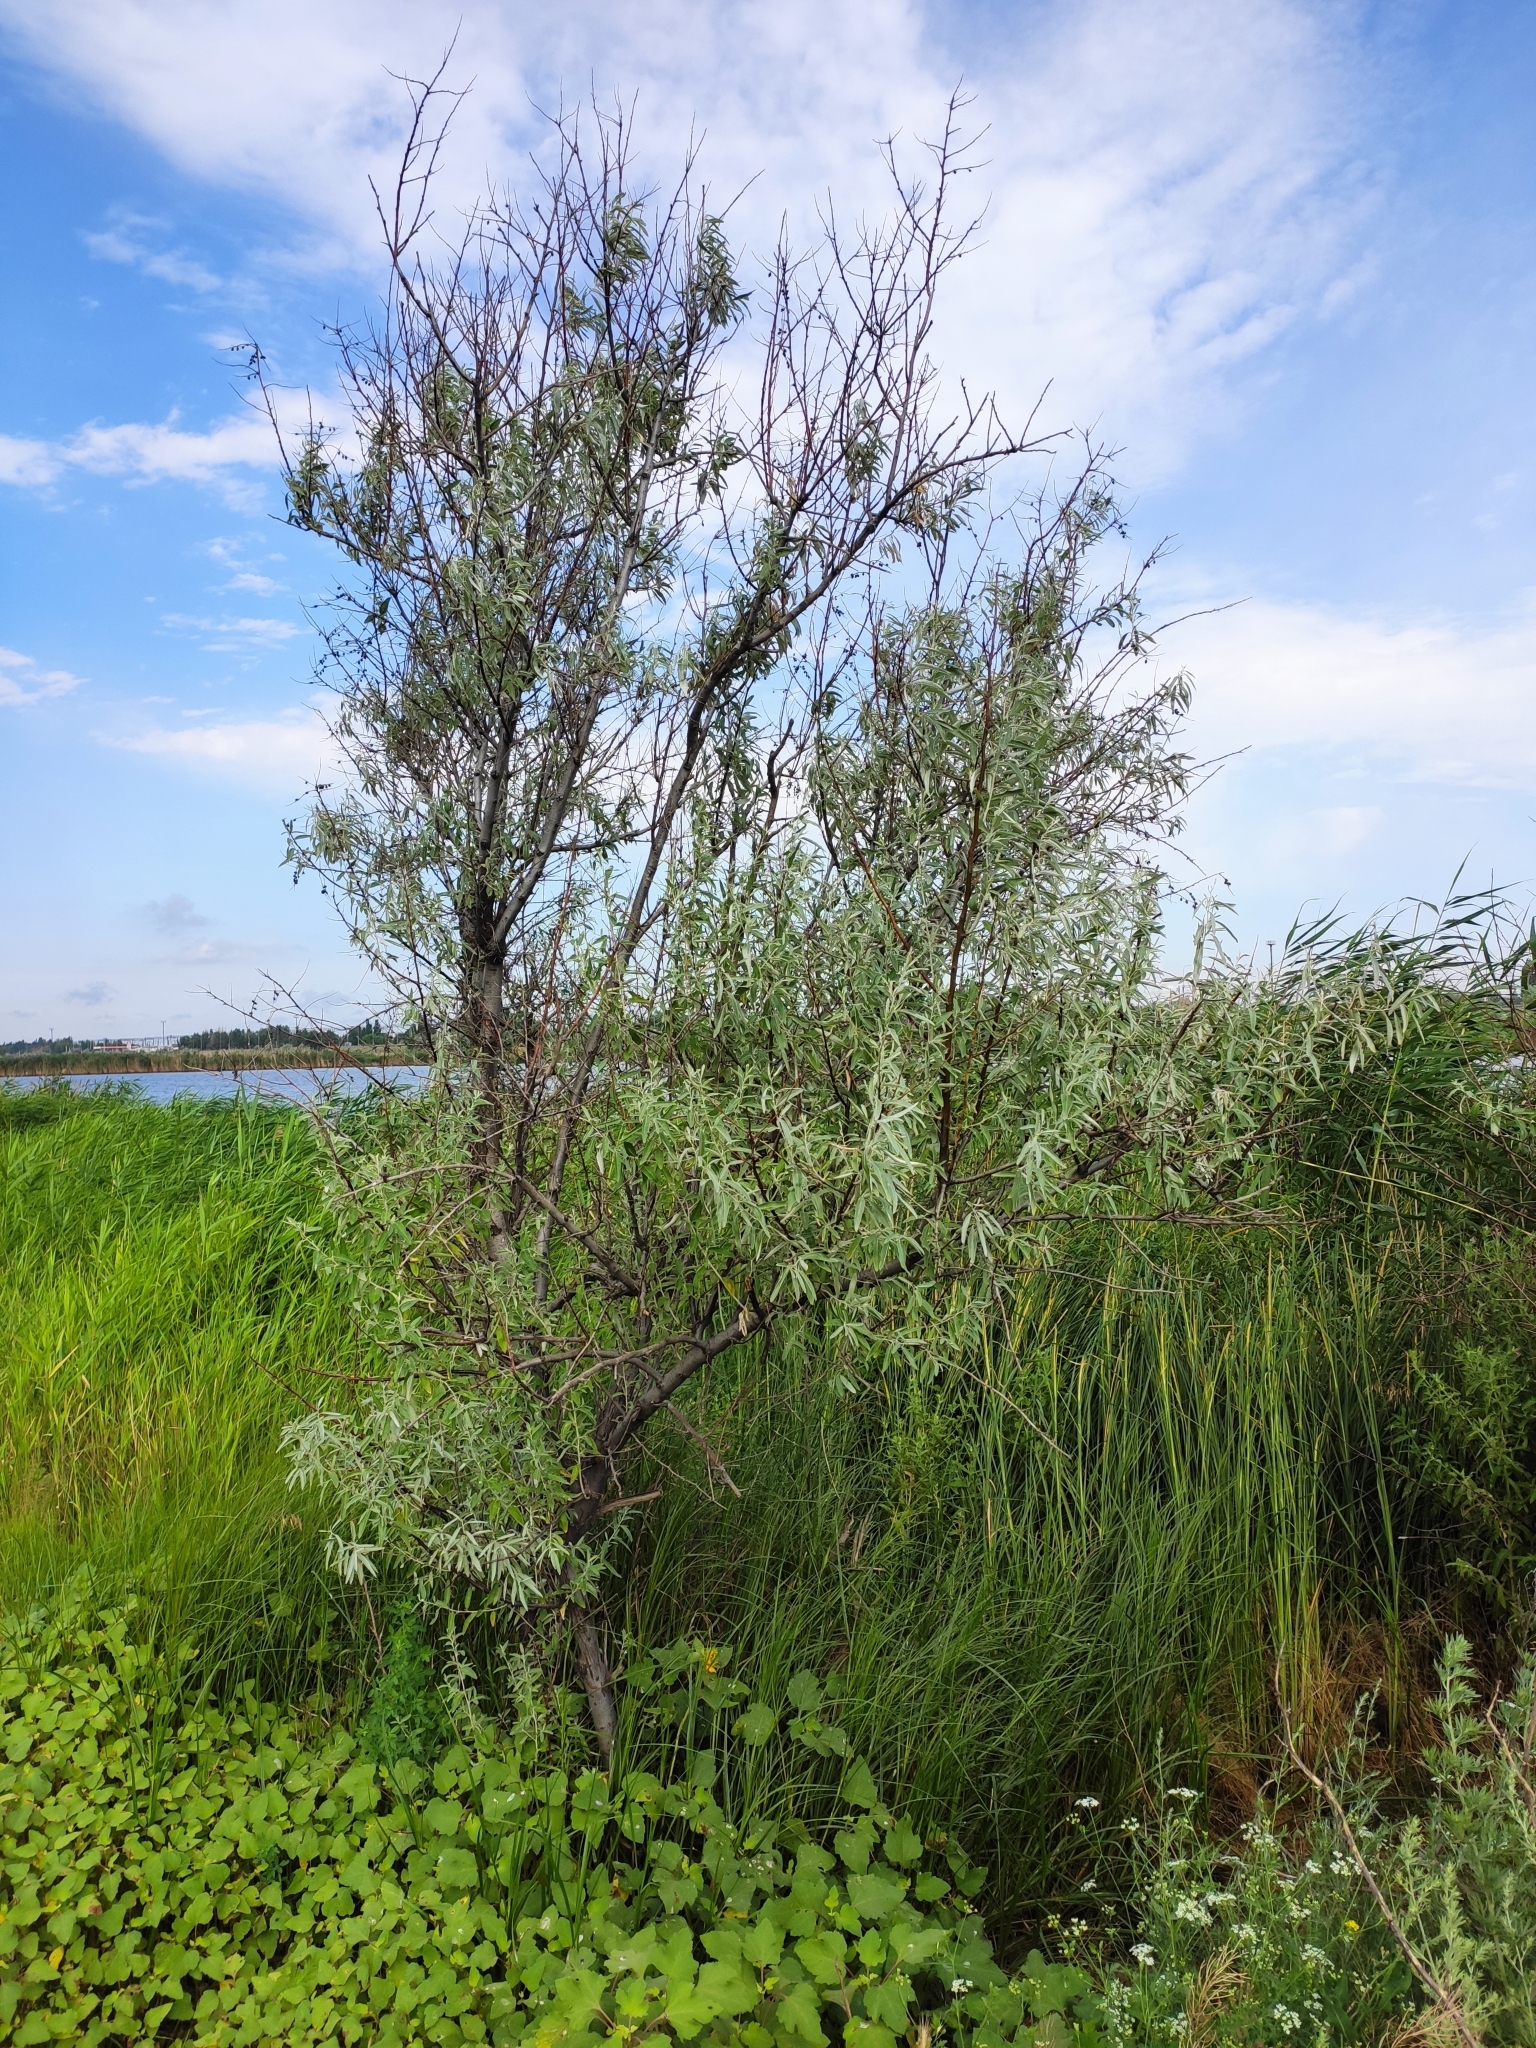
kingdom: Plantae
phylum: Tracheophyta
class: Magnoliopsida
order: Rosales
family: Elaeagnaceae
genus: Elaeagnus
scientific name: Elaeagnus angustifolia
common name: Russian olive
